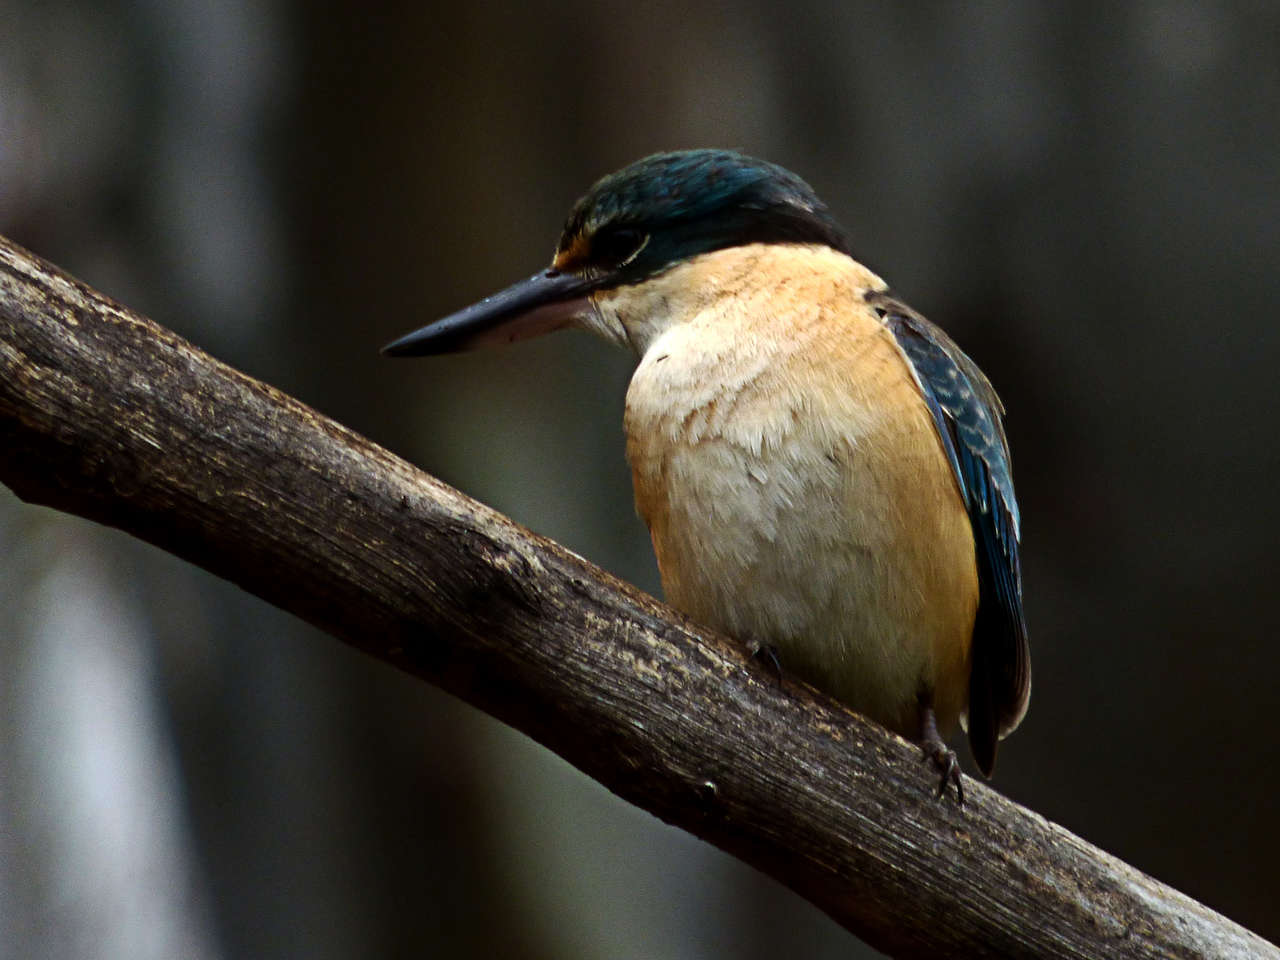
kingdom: Animalia
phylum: Chordata
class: Aves
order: Coraciiformes
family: Alcedinidae
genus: Todiramphus
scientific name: Todiramphus sanctus
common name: Sacred kingfisher
